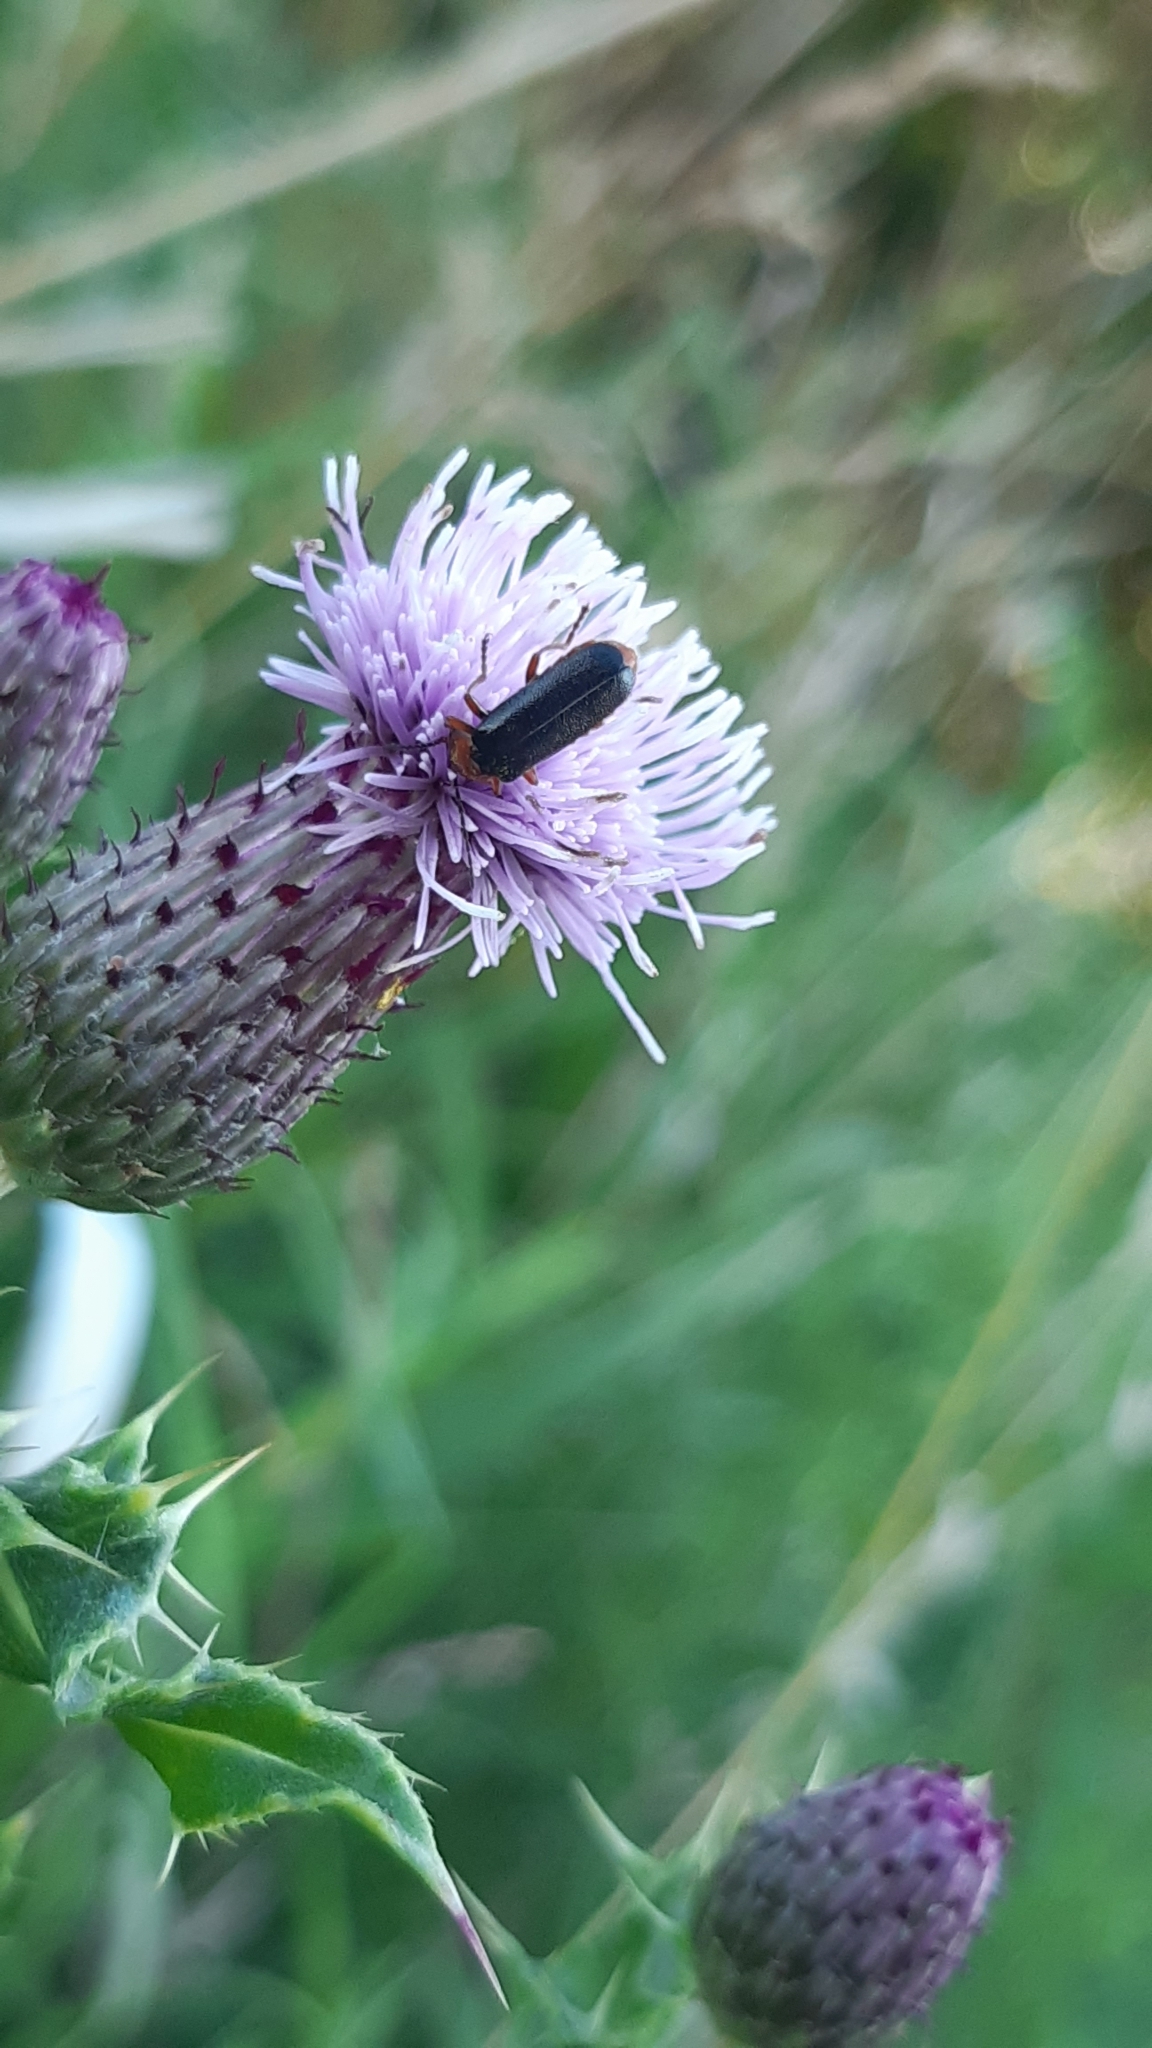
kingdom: Animalia
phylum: Arthropoda
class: Insecta
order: Coleoptera
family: Cantharidae
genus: Cantharis
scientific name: Cantharis flavilabris
